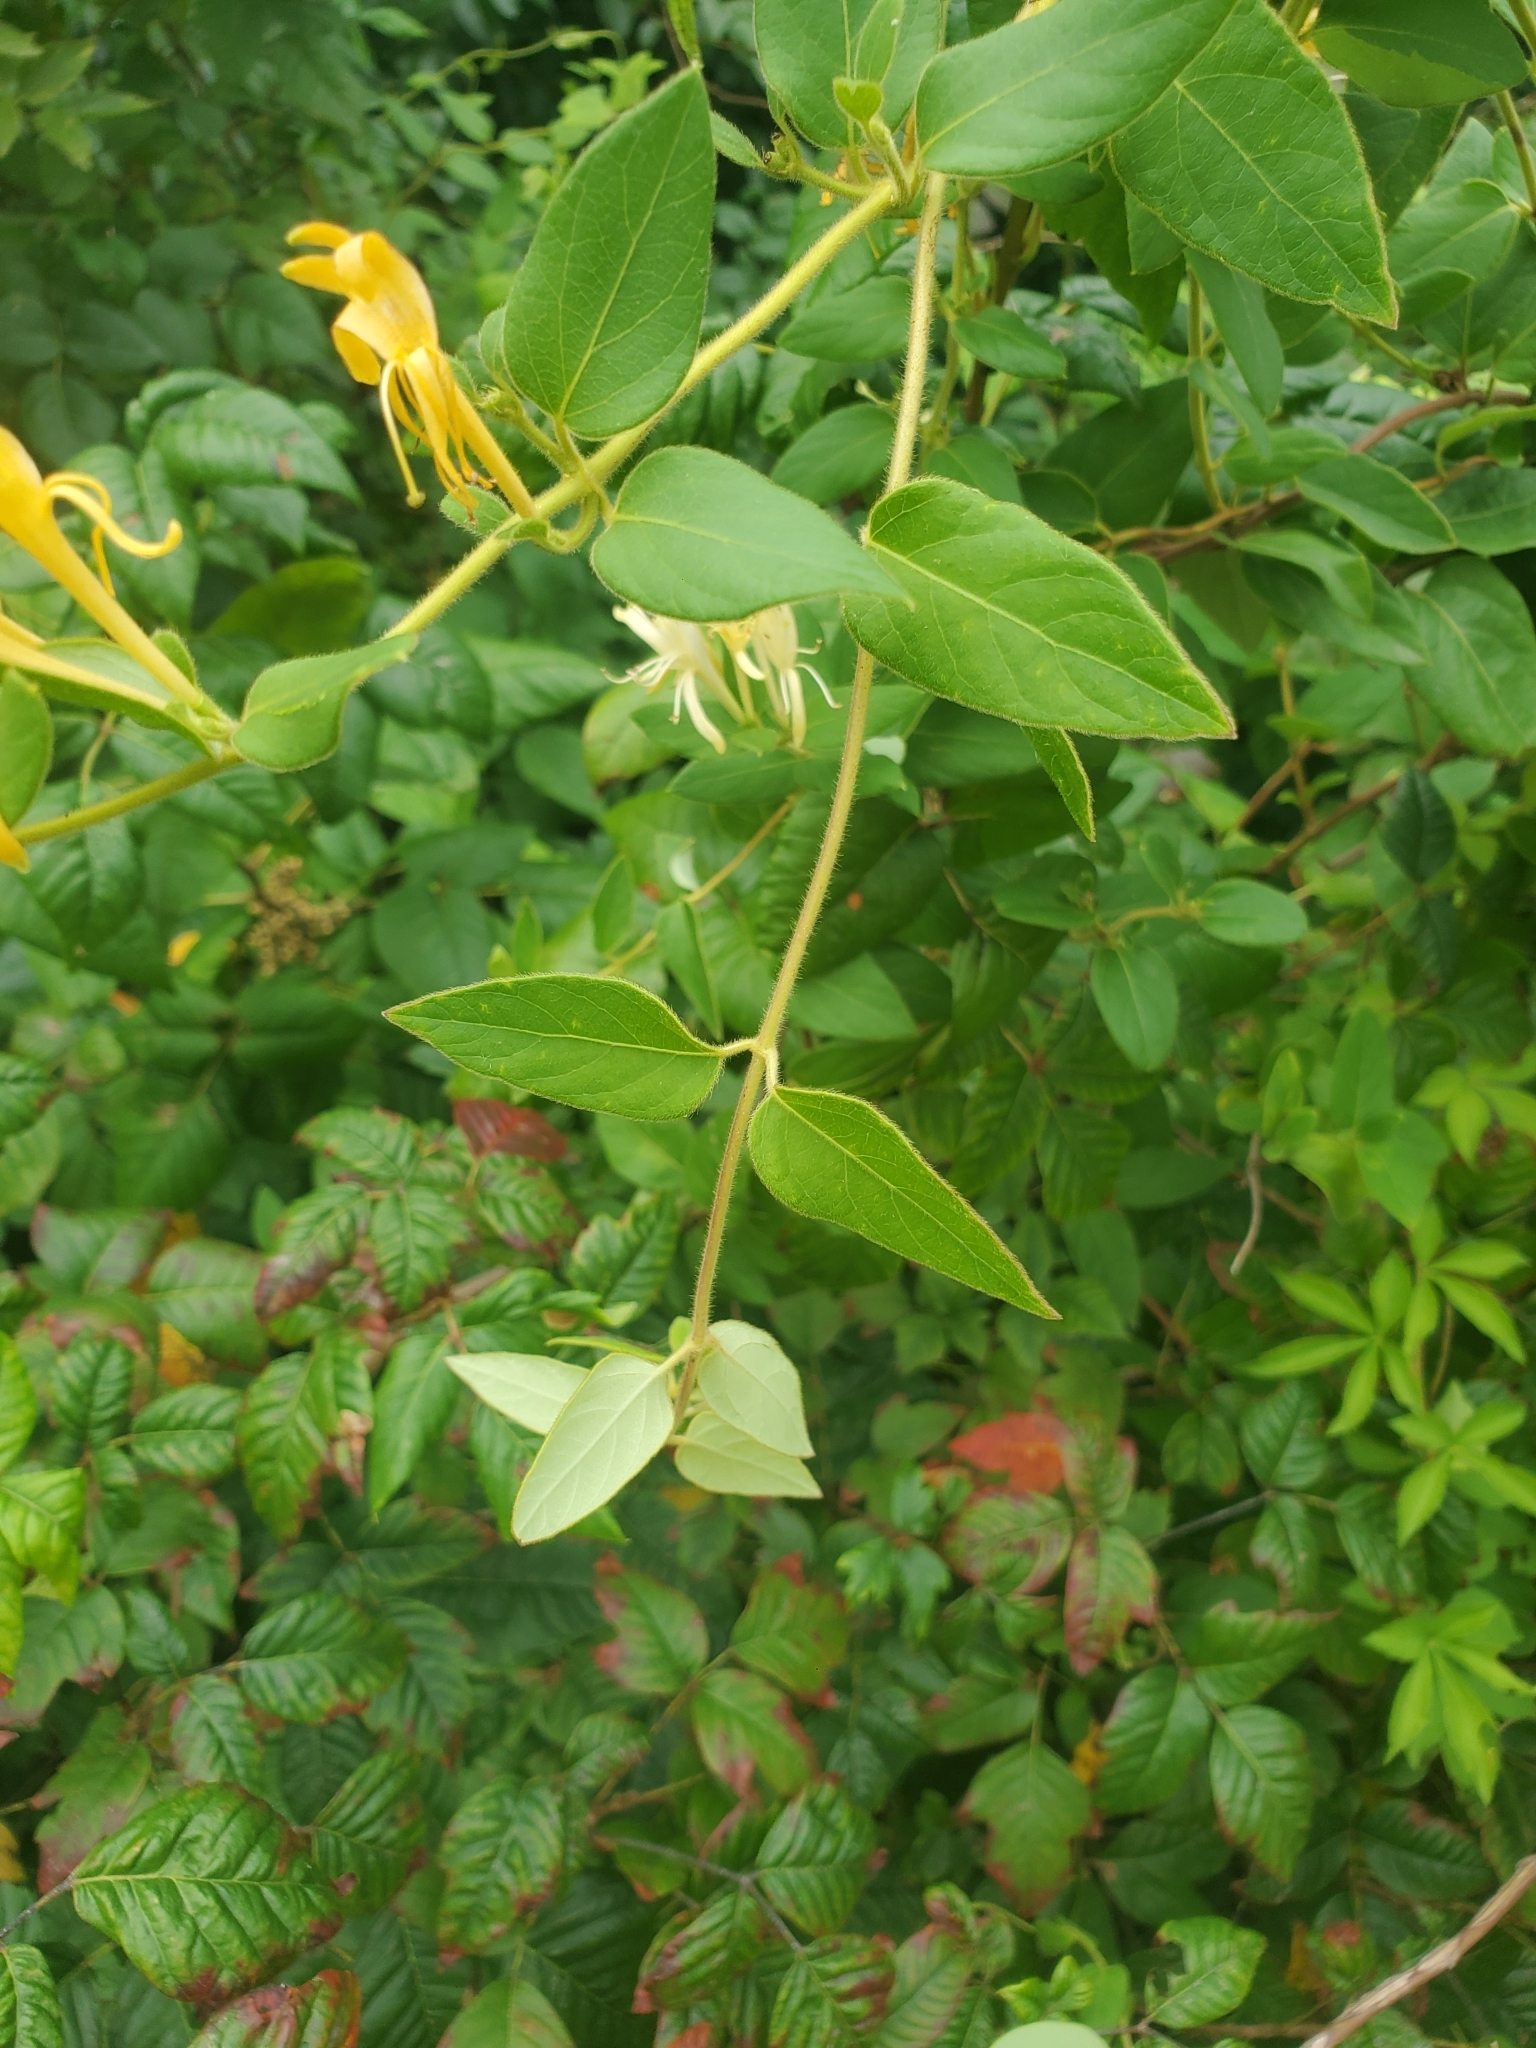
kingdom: Plantae
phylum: Tracheophyta
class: Magnoliopsida
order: Dipsacales
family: Caprifoliaceae
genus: Lonicera
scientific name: Lonicera japonica
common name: Japanese honeysuckle
